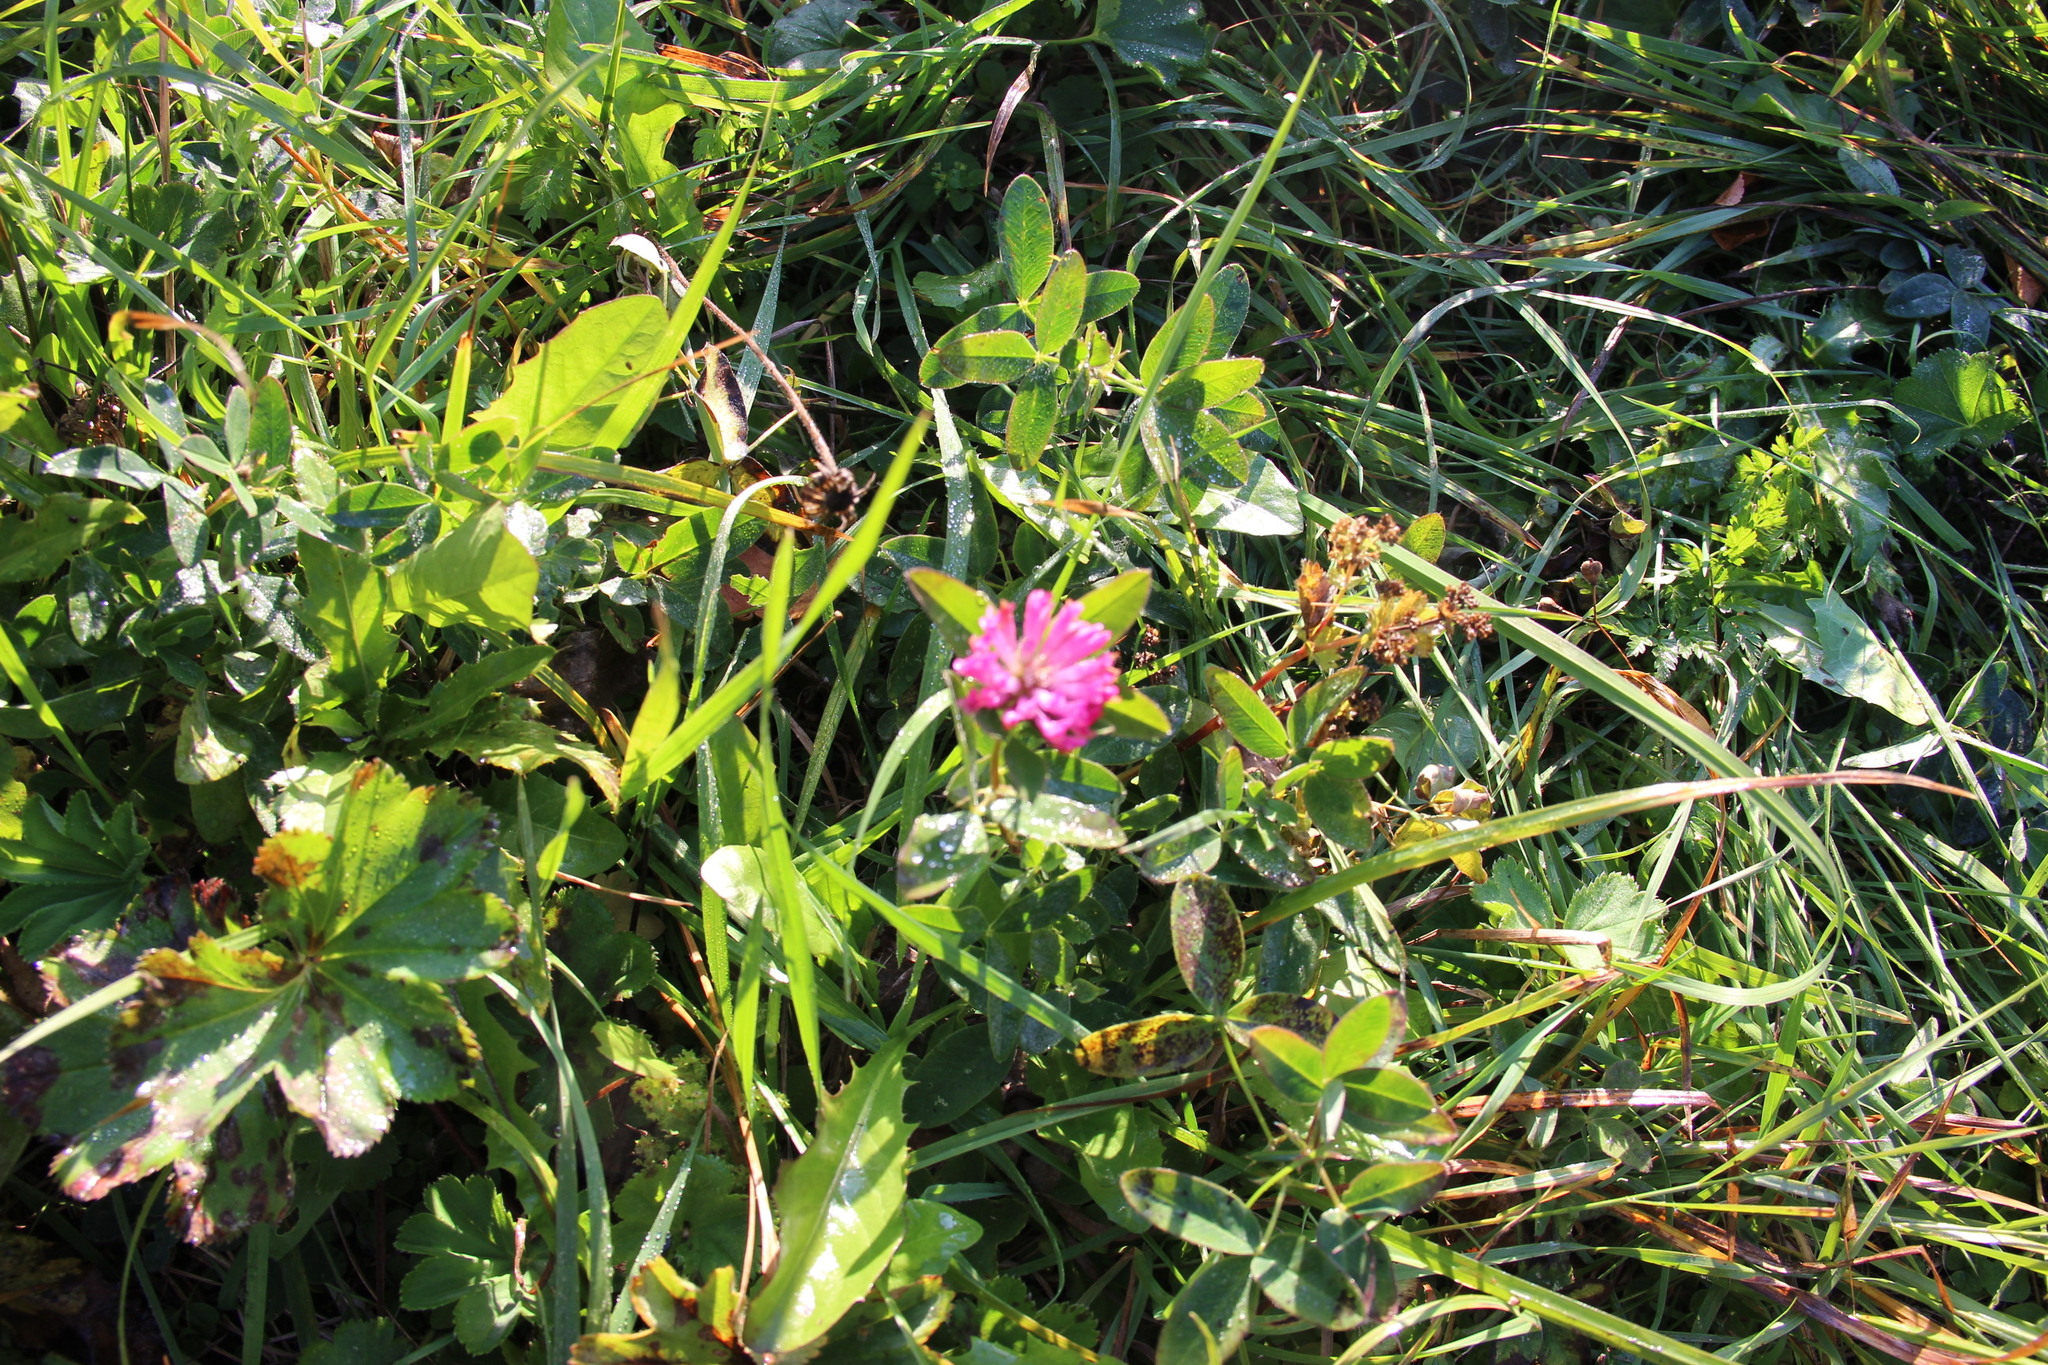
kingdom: Plantae
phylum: Tracheophyta
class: Magnoliopsida
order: Fabales
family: Fabaceae
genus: Trifolium
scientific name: Trifolium pratense
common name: Red clover
